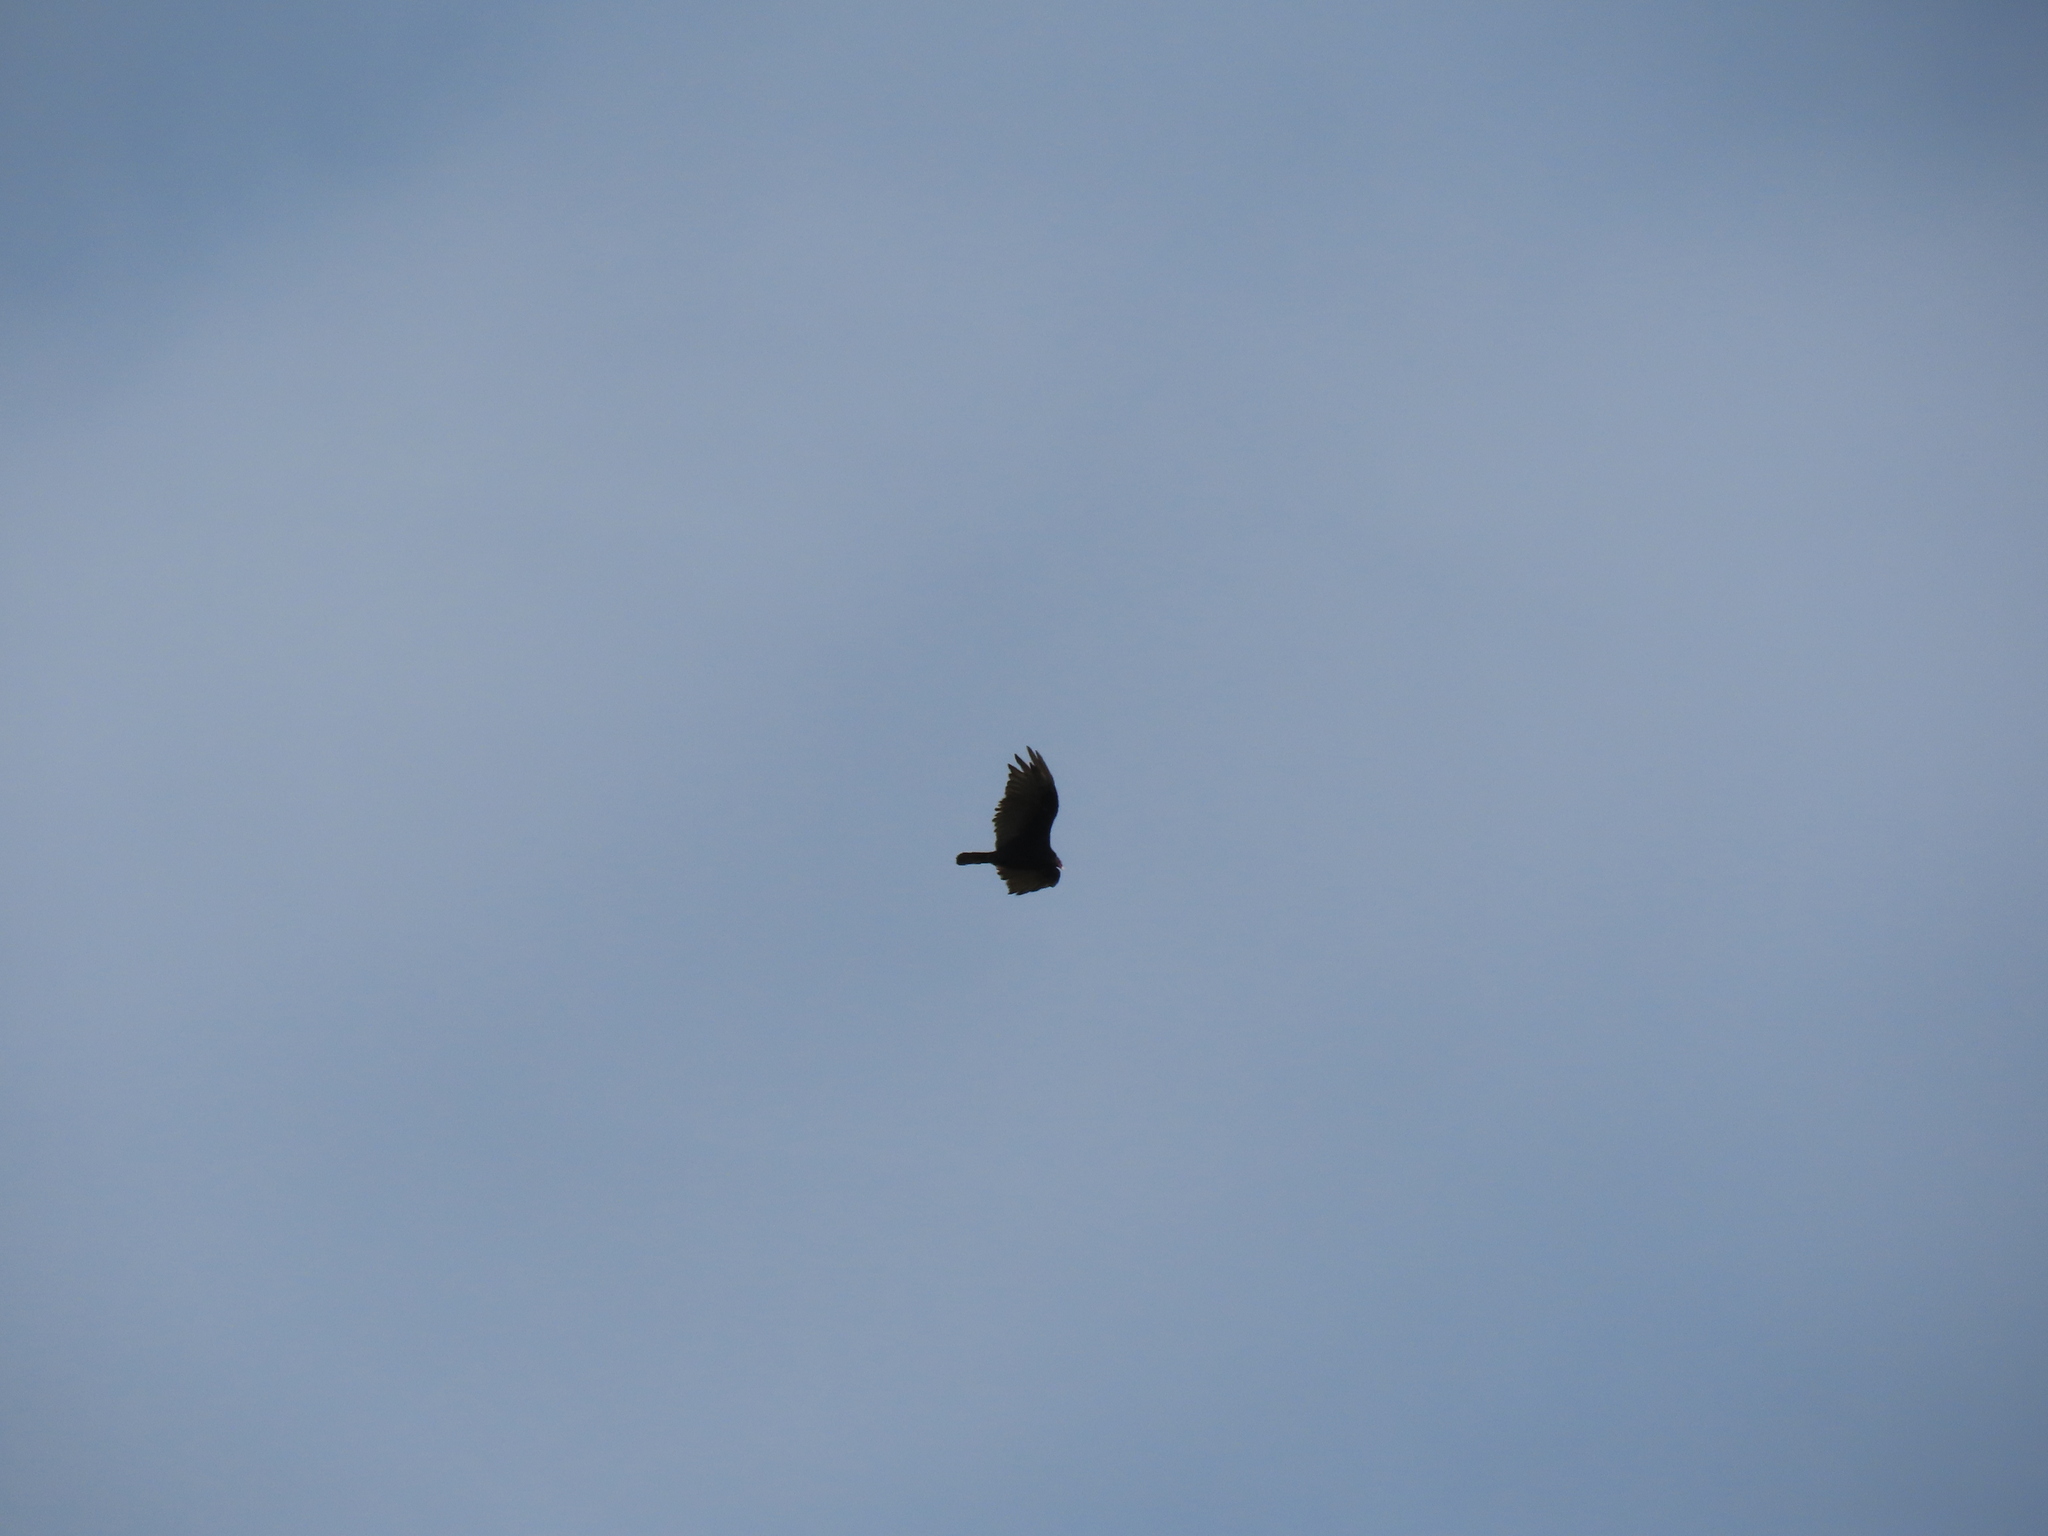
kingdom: Animalia
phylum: Chordata
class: Aves
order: Accipitriformes
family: Cathartidae
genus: Cathartes
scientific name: Cathartes aura
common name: Turkey vulture
